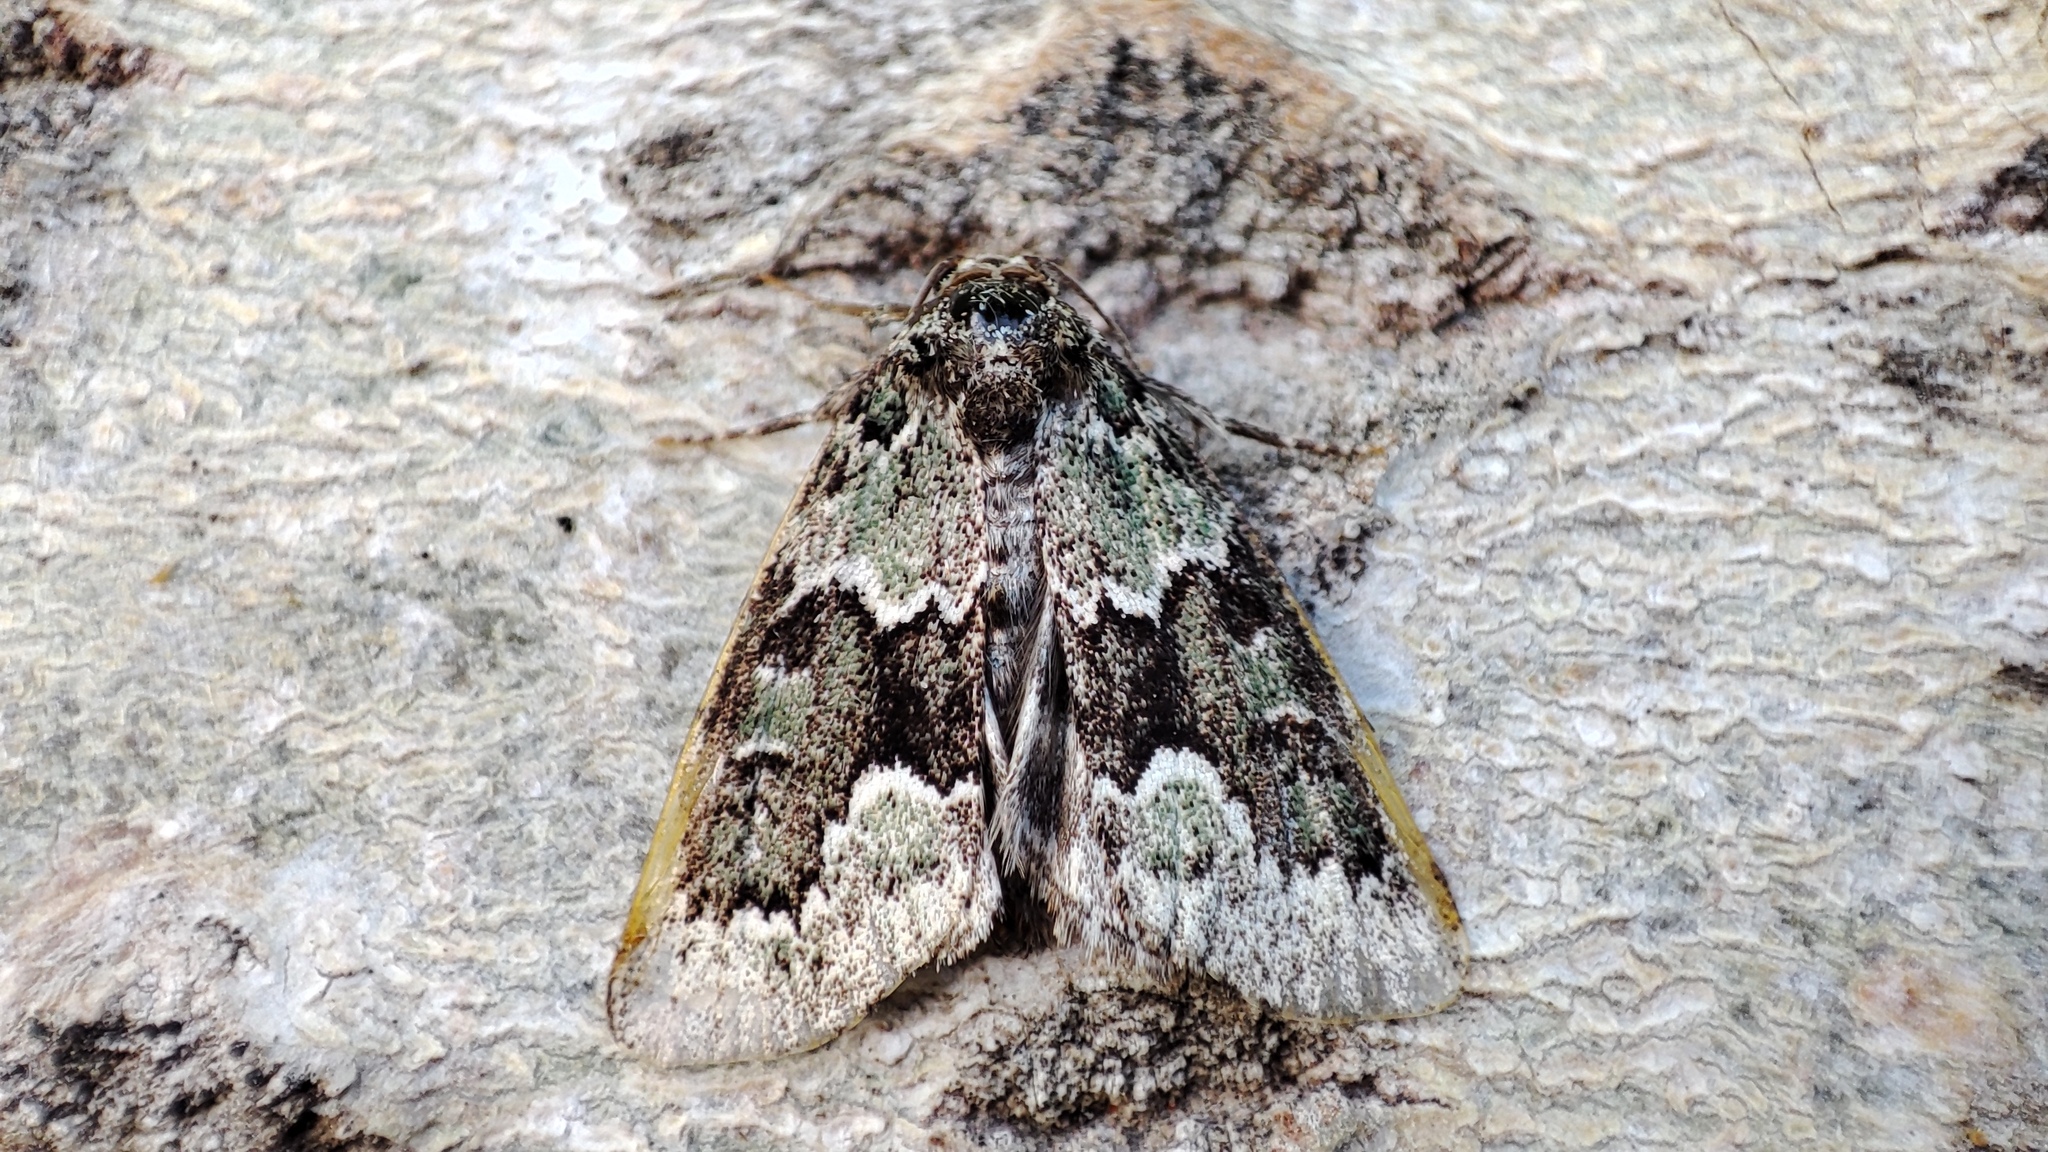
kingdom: Animalia
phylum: Arthropoda
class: Insecta
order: Lepidoptera
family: Noctuidae
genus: Victrix
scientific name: Victrix umovii
